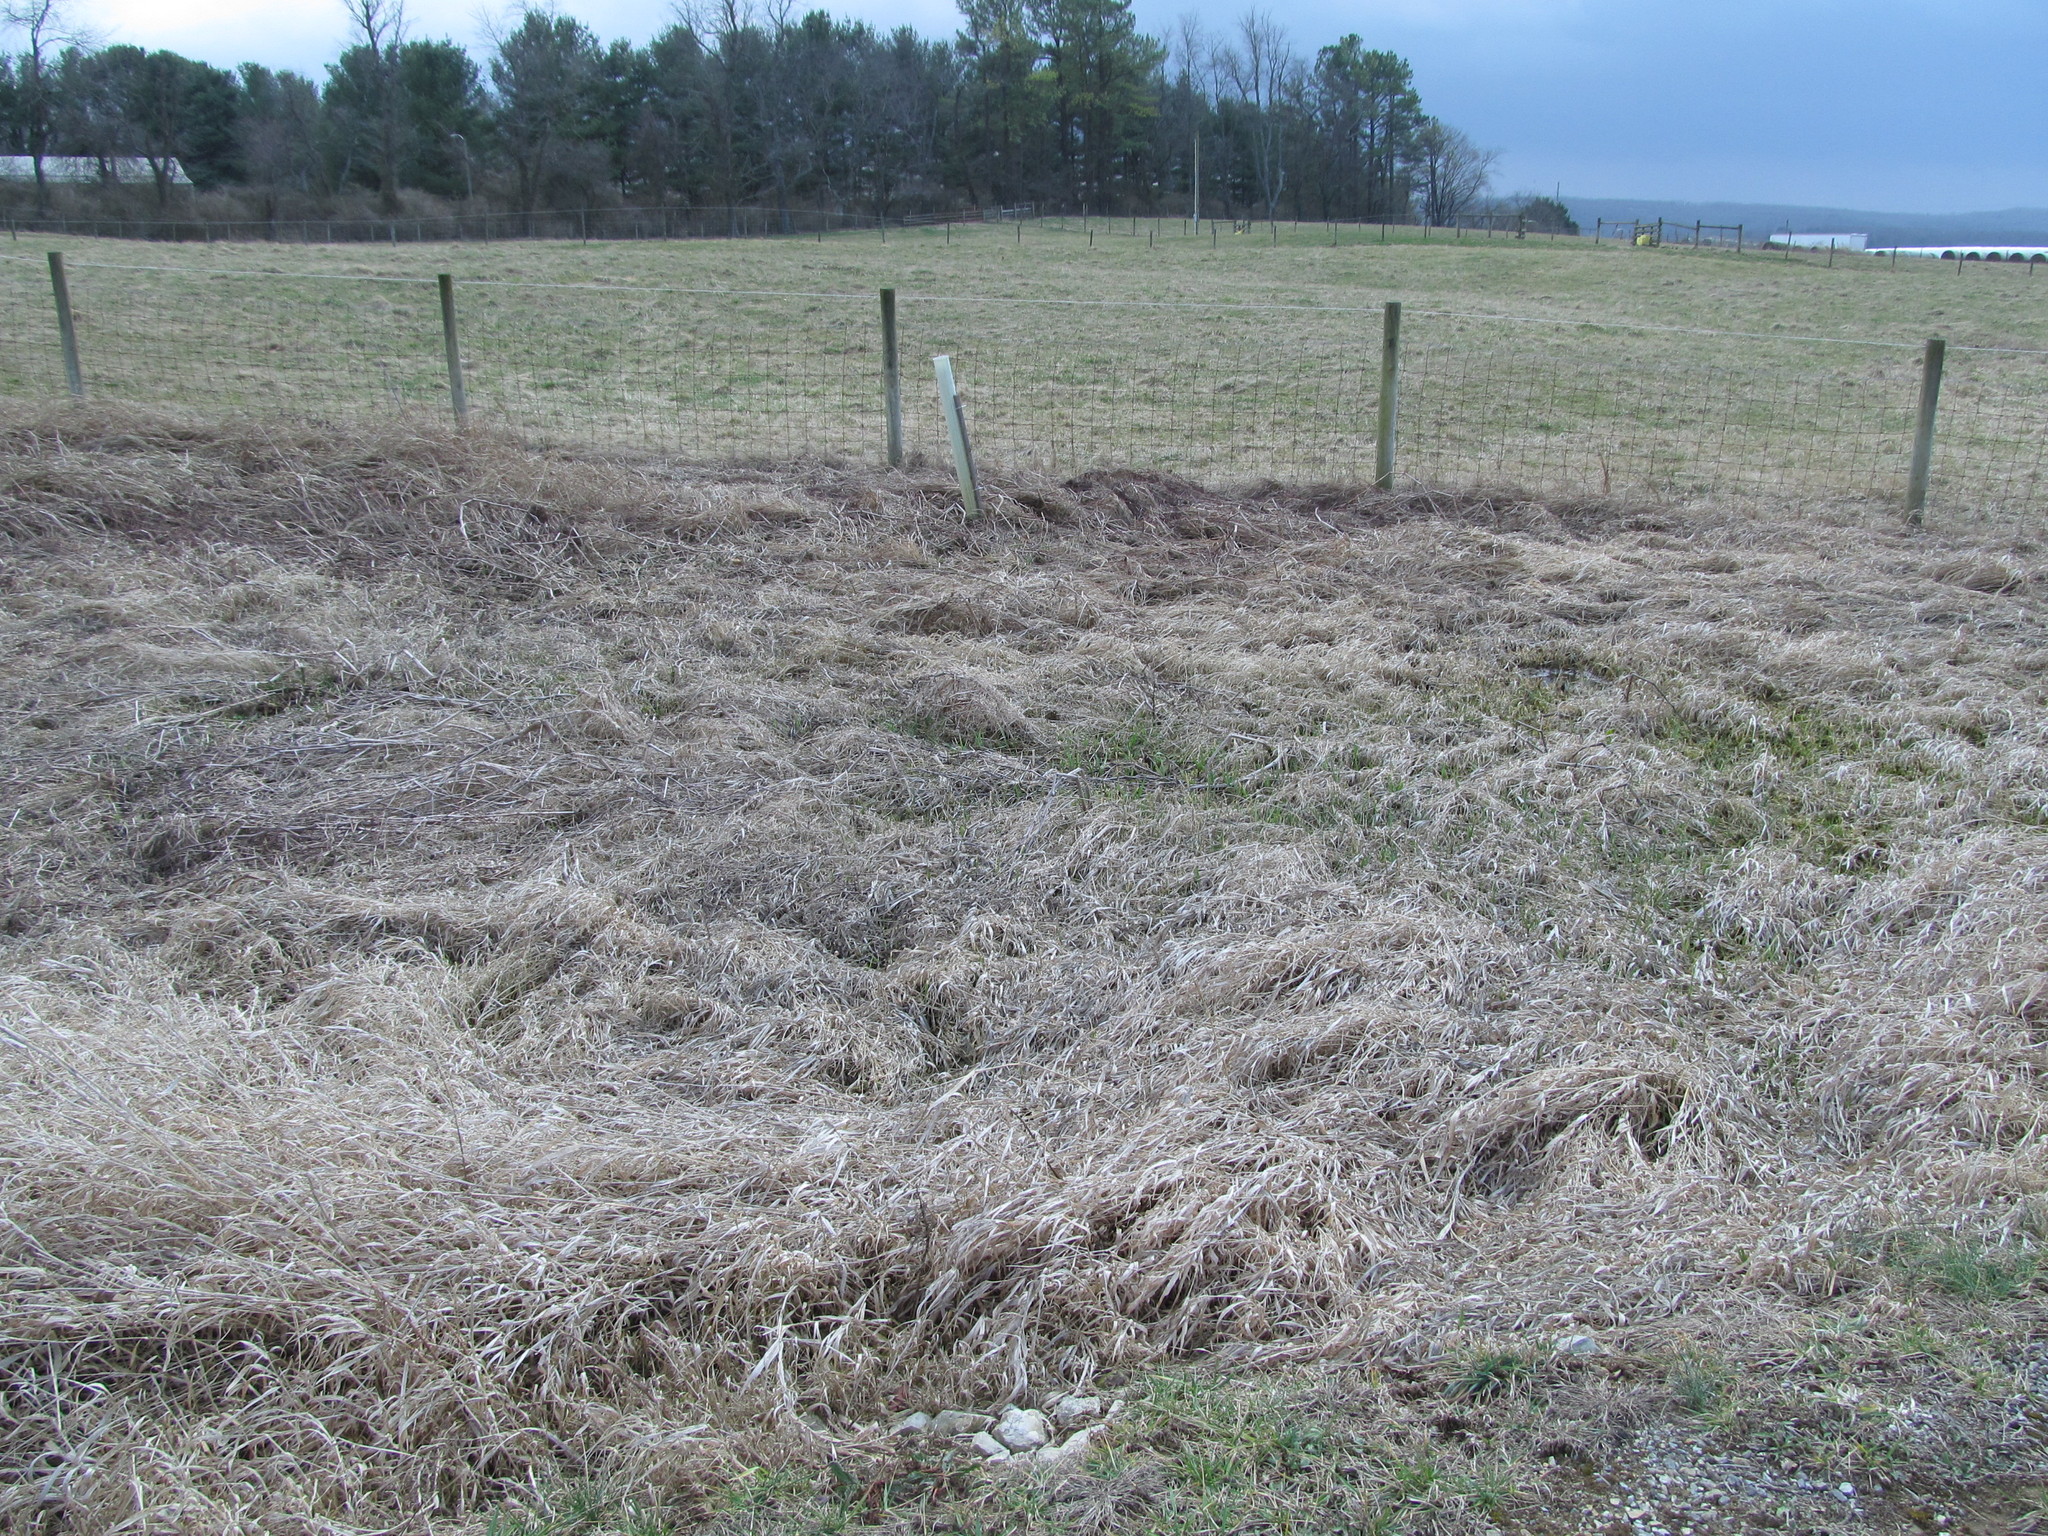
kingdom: Plantae
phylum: Tracheophyta
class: Liliopsida
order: Alismatales
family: Araceae
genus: Symplocarpus
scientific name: Symplocarpus foetidus
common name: Eastern skunk cabbage
